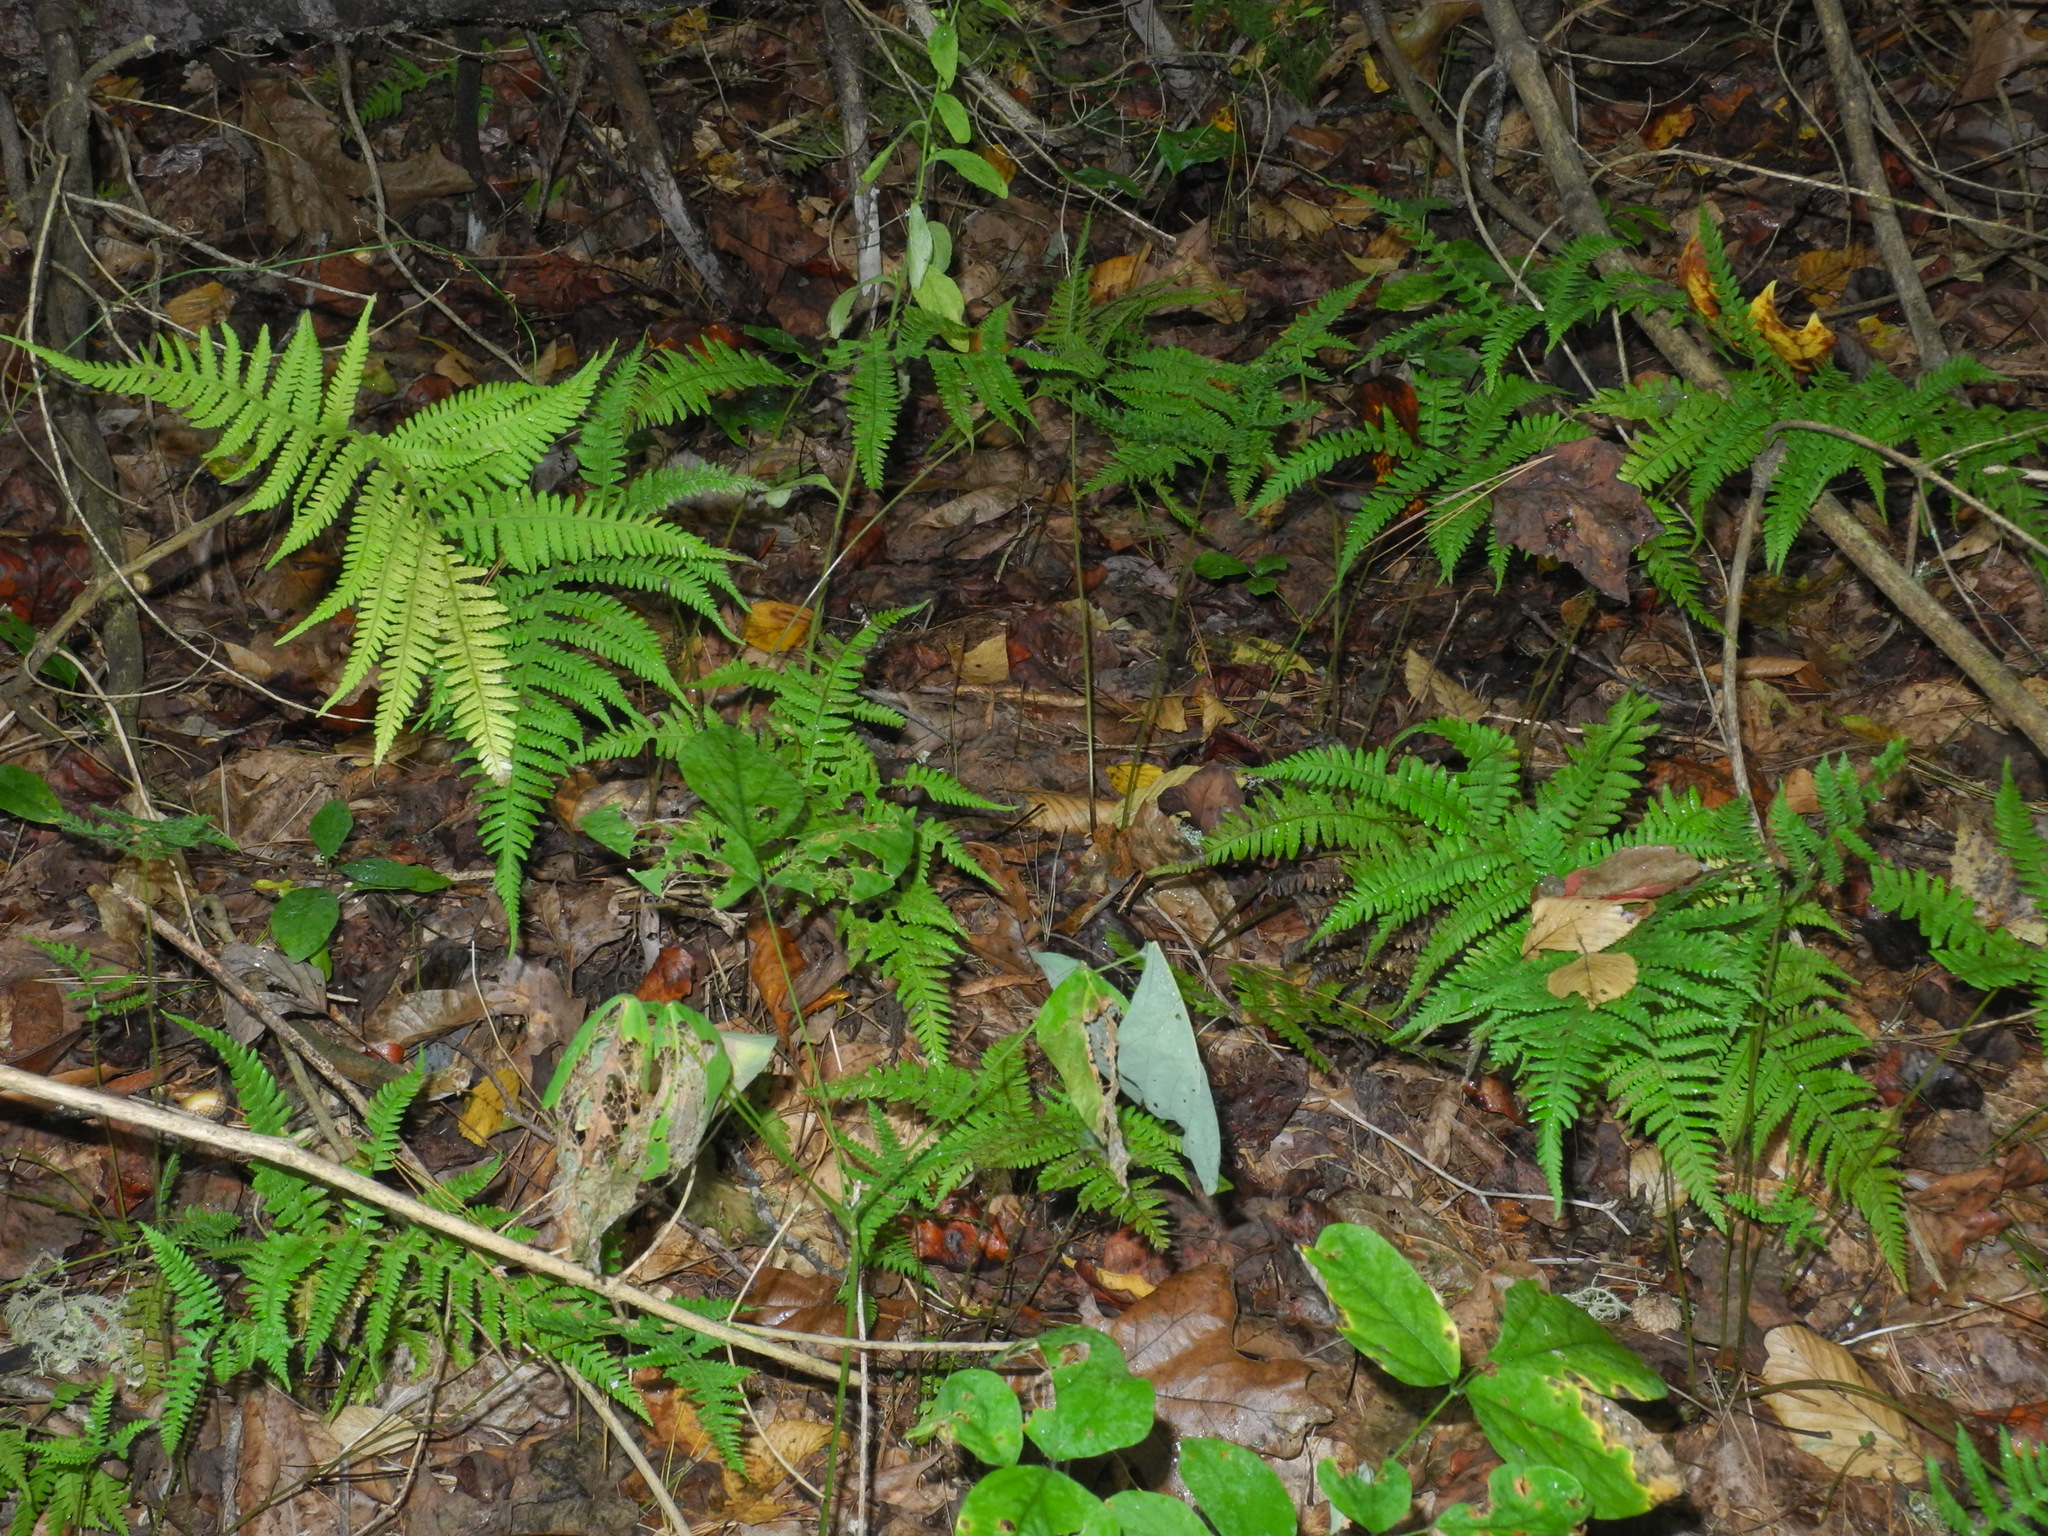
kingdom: Plantae
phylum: Tracheophyta
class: Polypodiopsida
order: Polypodiales
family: Thelypteridaceae
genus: Phegopteris
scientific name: Phegopteris hexagonoptera
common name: Broad beech fern
